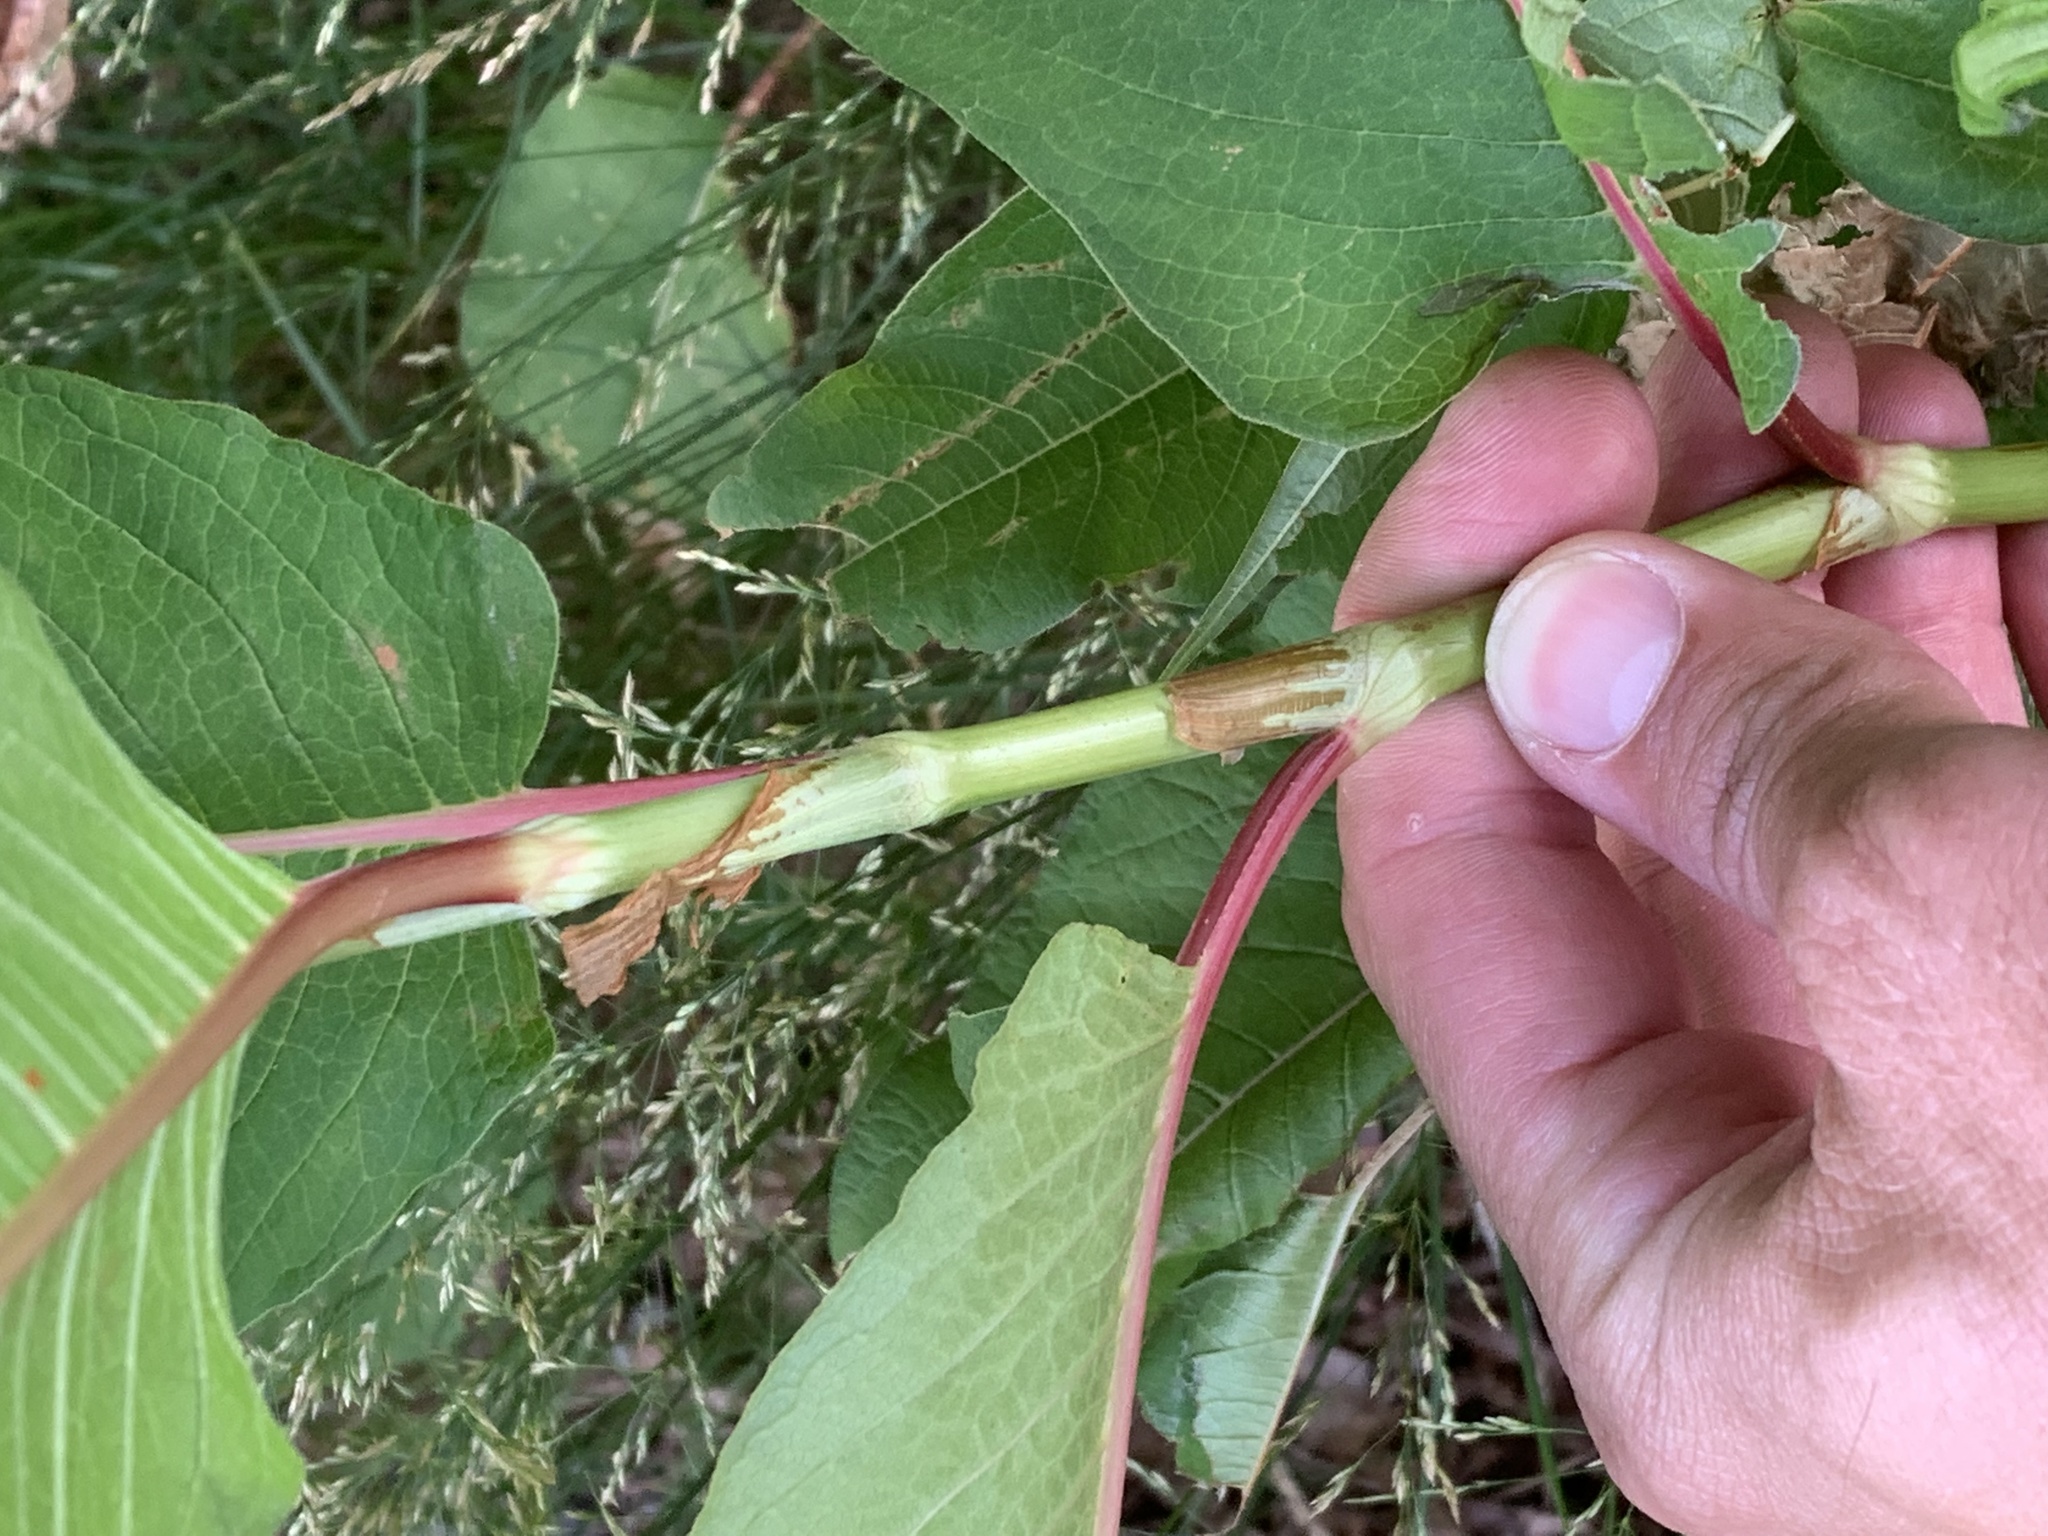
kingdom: Plantae
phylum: Tracheophyta
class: Magnoliopsida
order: Caryophyllales
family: Polygonaceae
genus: Koenigia
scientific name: Koenigia polystachya
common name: Himalayan knotweed
